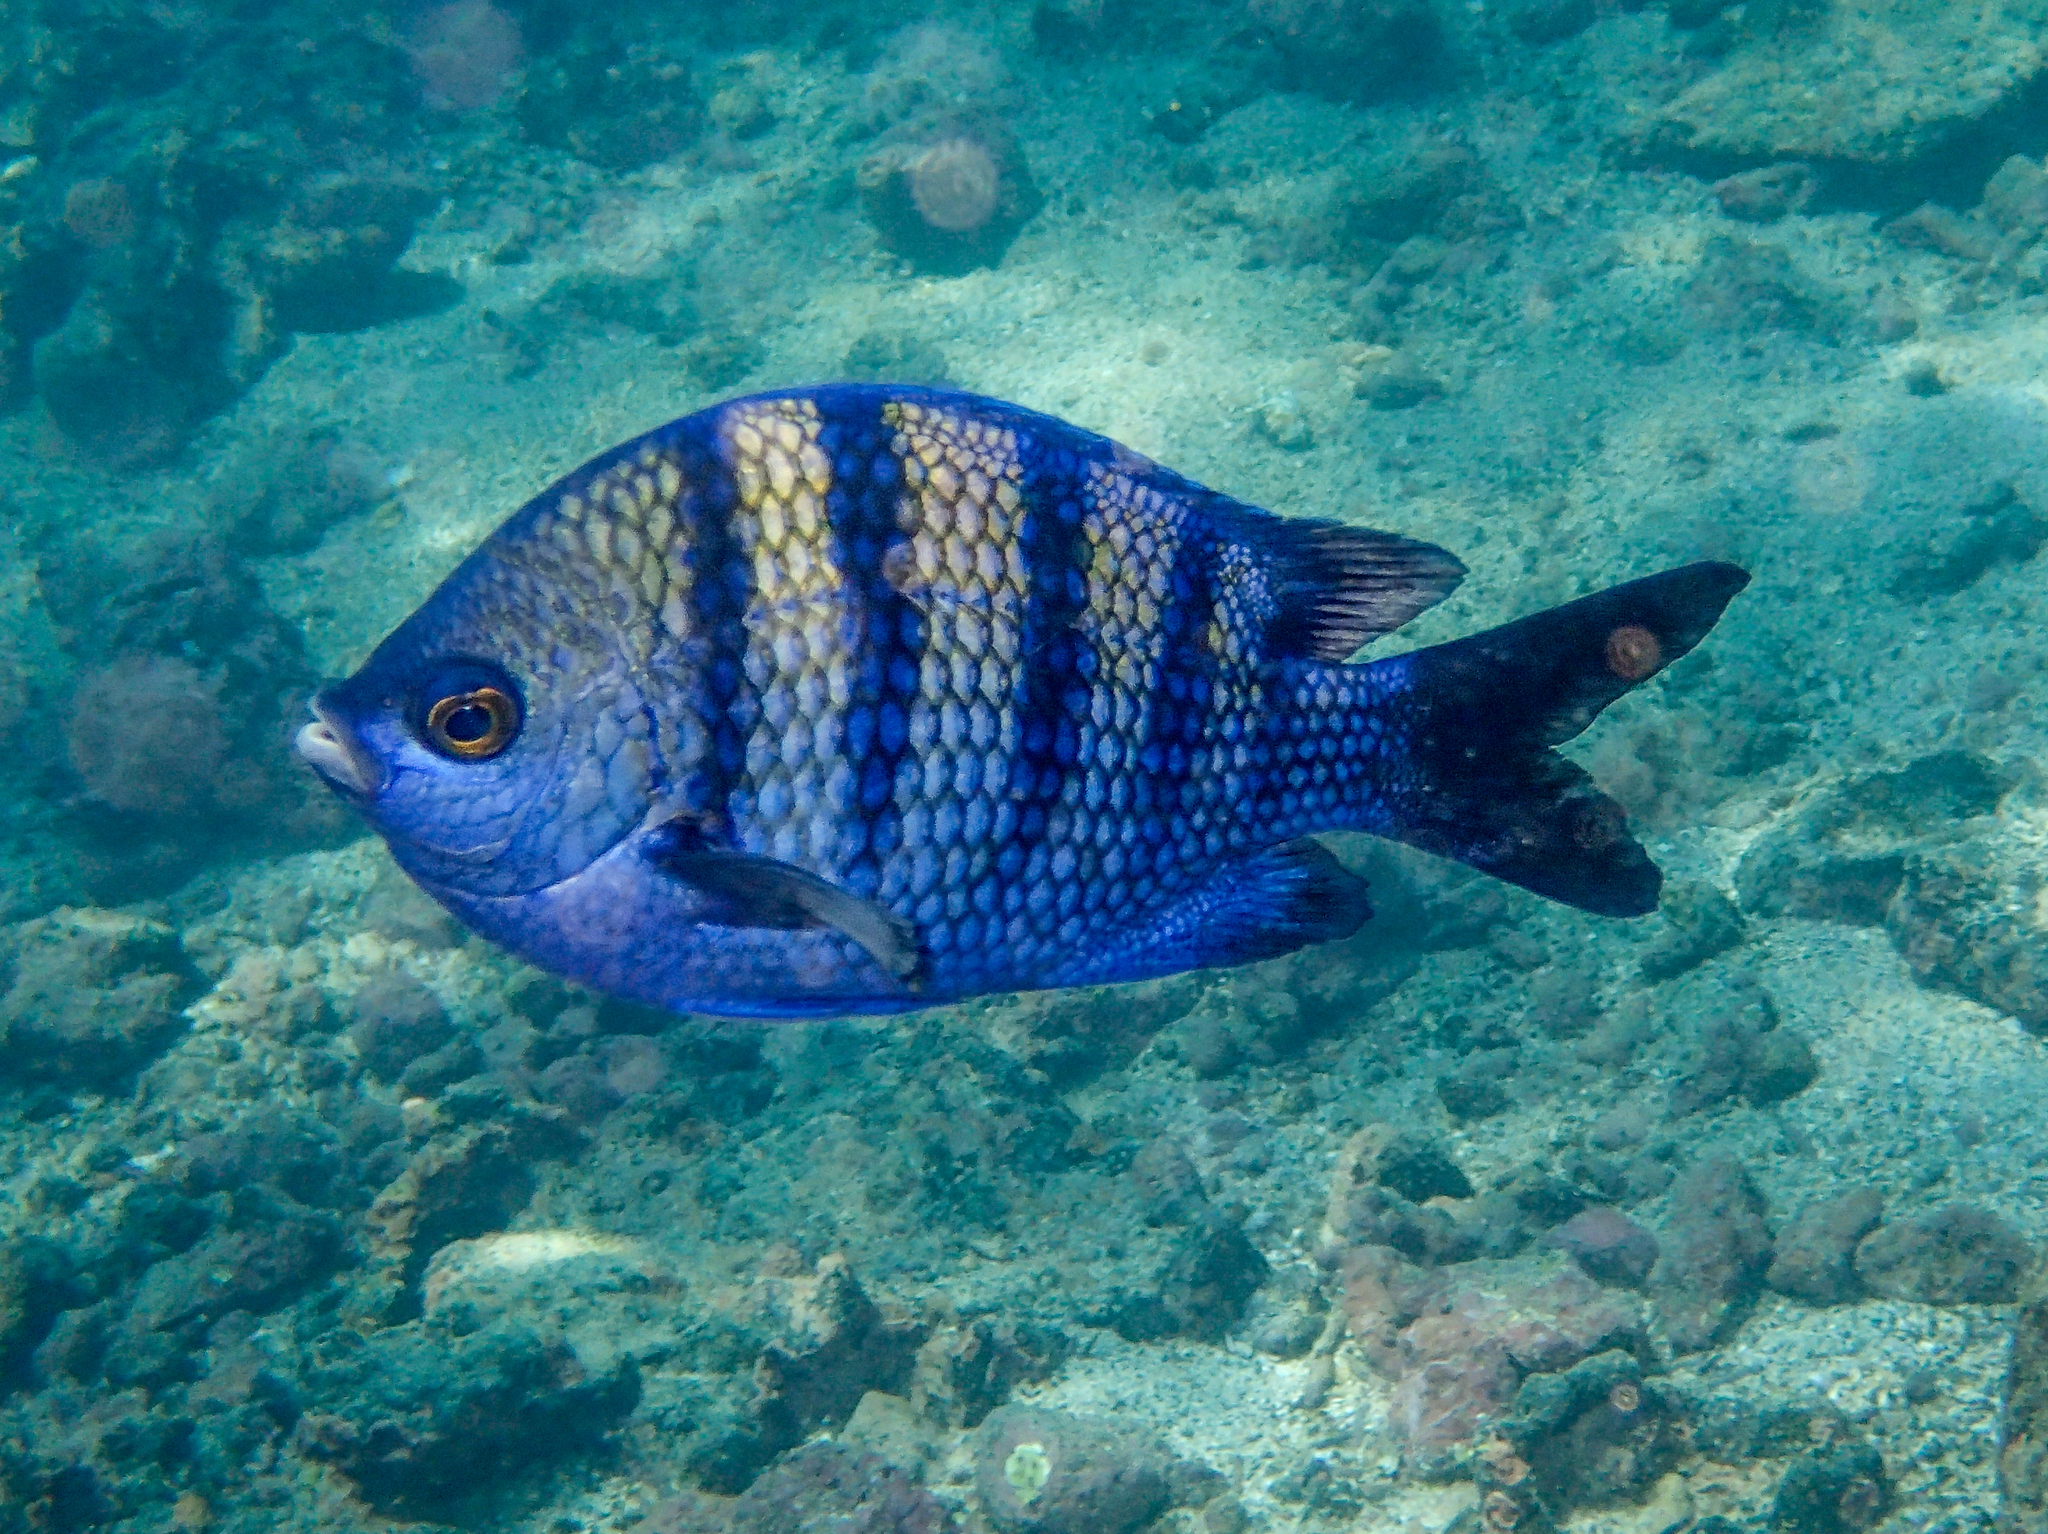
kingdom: Animalia
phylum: Chordata
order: Perciformes
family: Pomacentridae
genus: Abudefduf
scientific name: Abudefduf troschelii
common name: Panamic sergeant major
